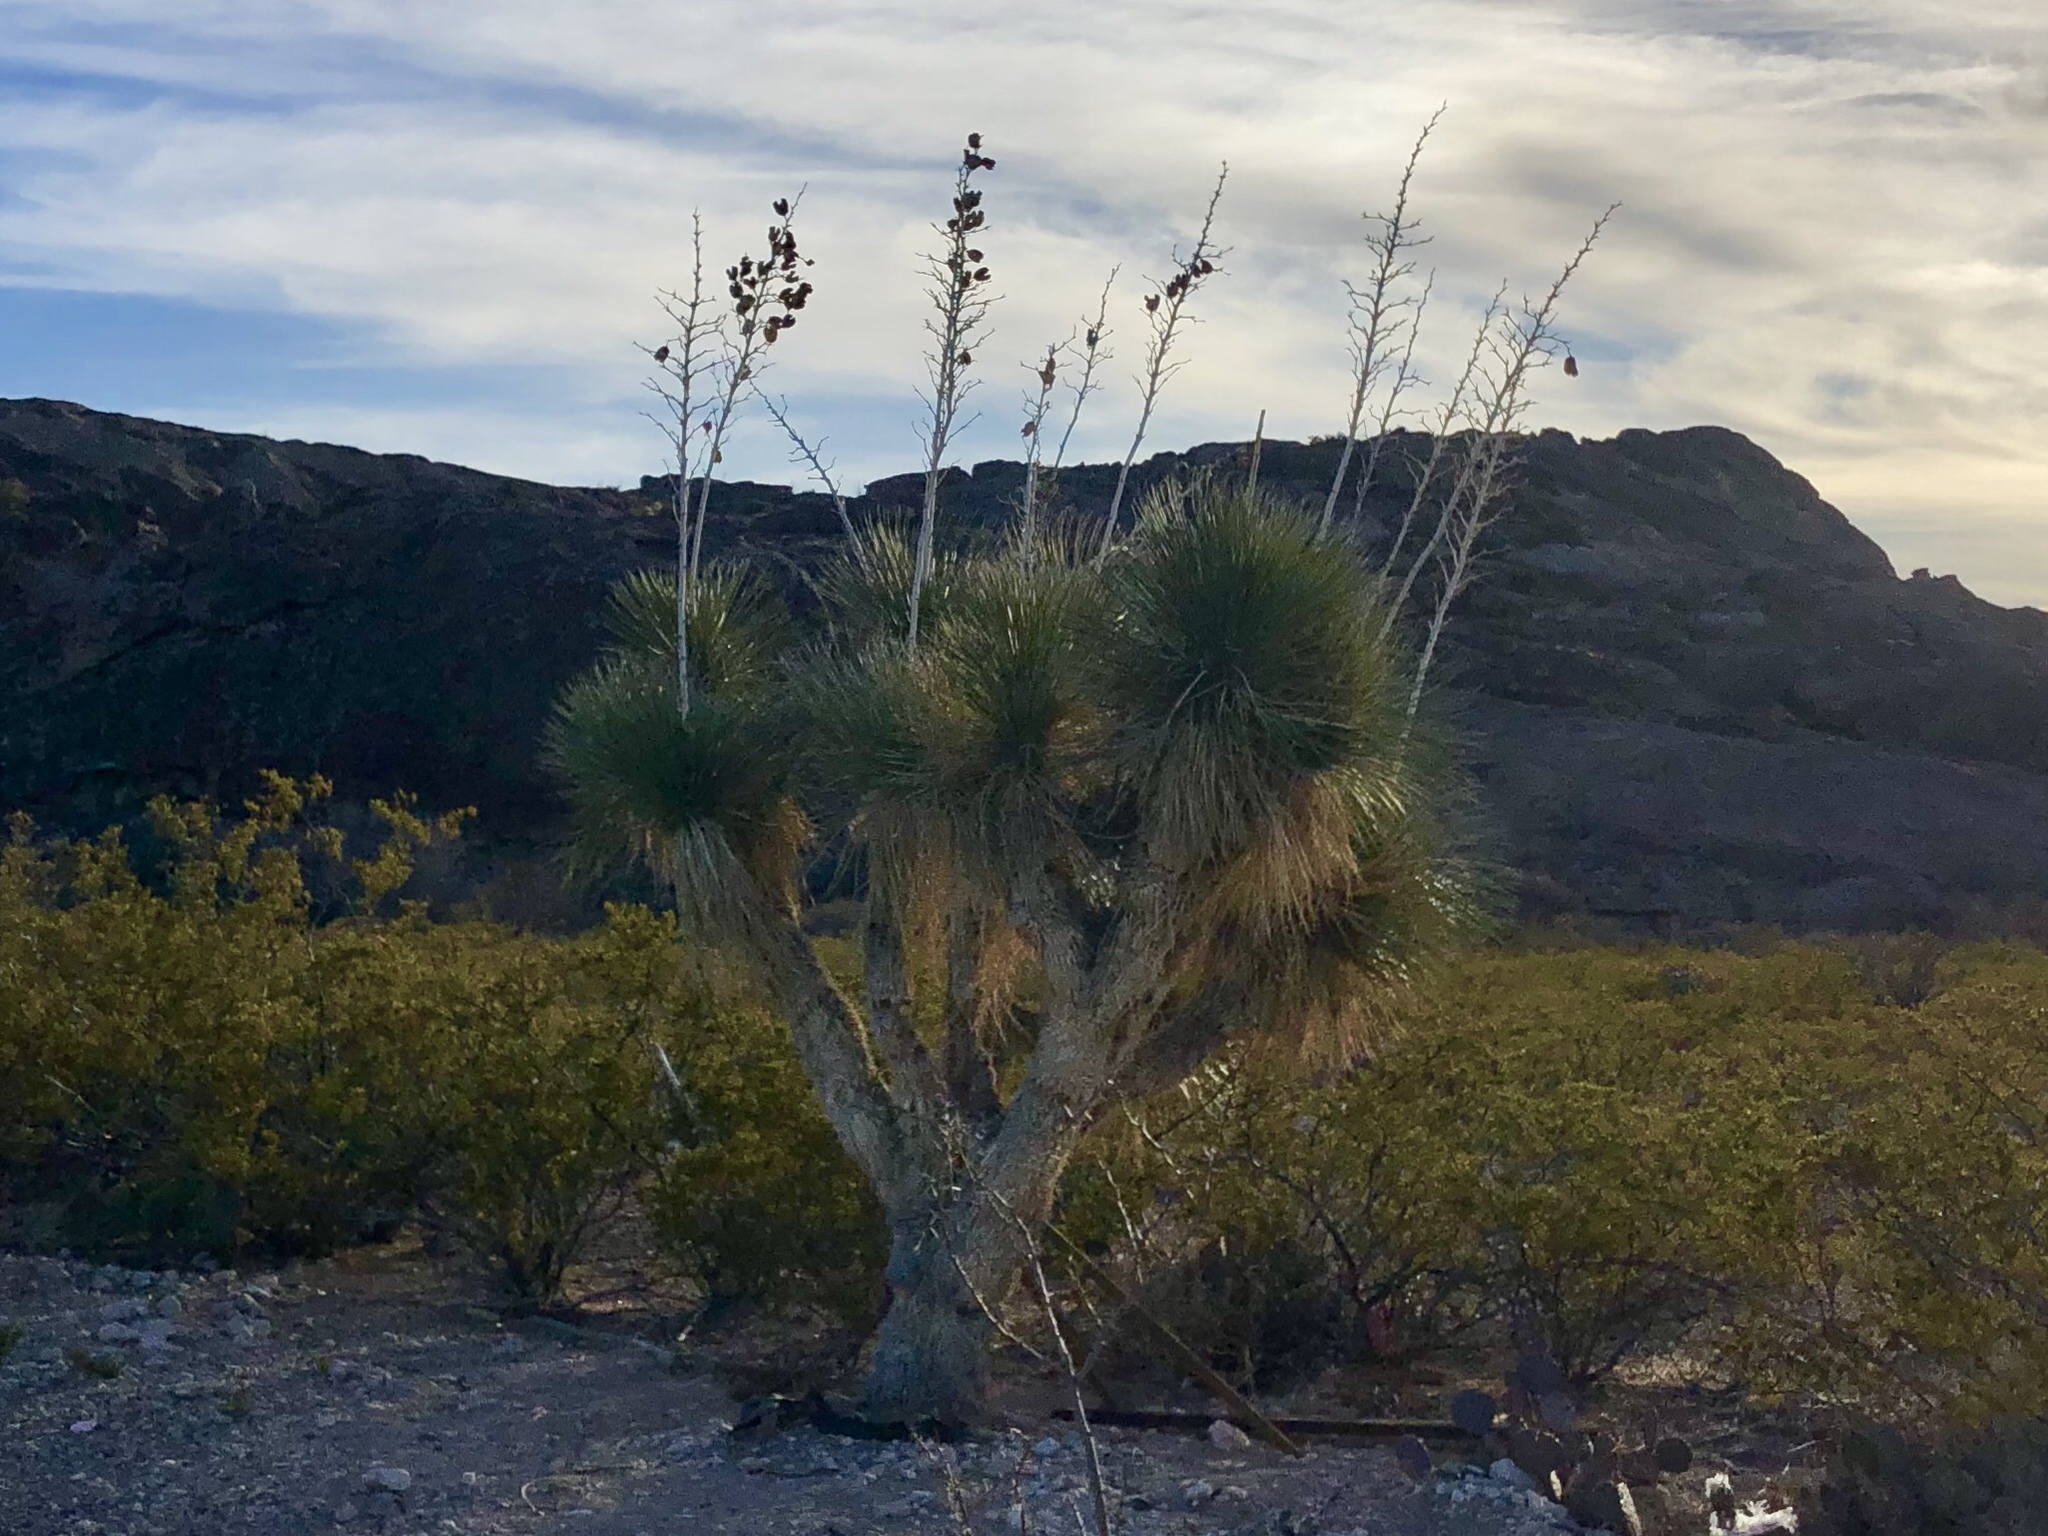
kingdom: Plantae
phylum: Tracheophyta
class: Liliopsida
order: Asparagales
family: Asparagaceae
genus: Yucca
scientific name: Yucca elata
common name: Palmella
